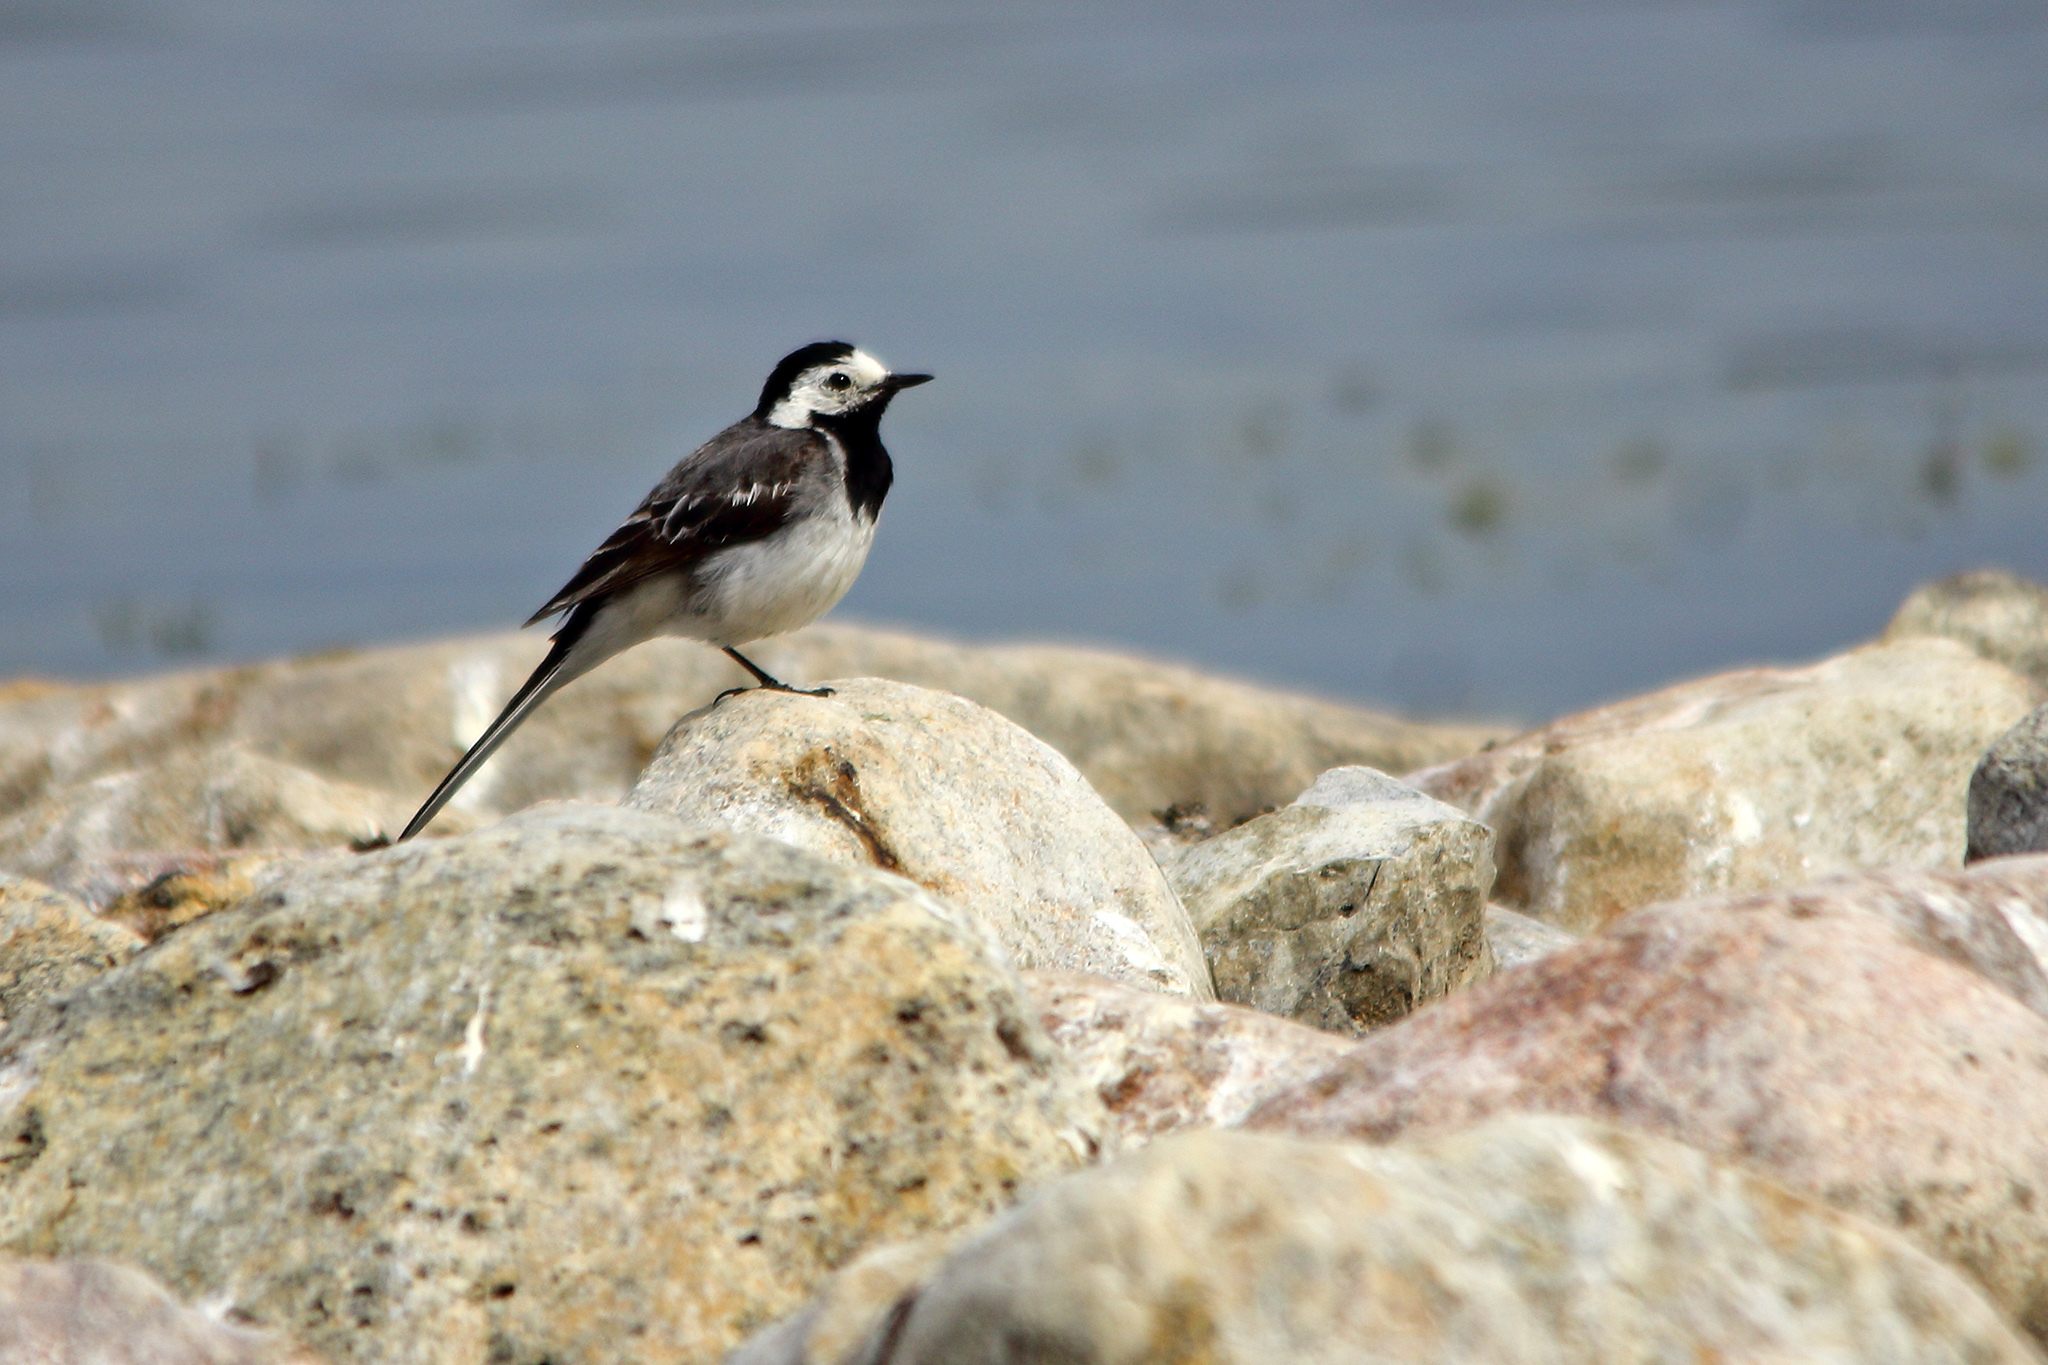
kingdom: Animalia
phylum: Chordata
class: Aves
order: Passeriformes
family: Motacillidae
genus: Motacilla
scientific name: Motacilla alba
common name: White wagtail
